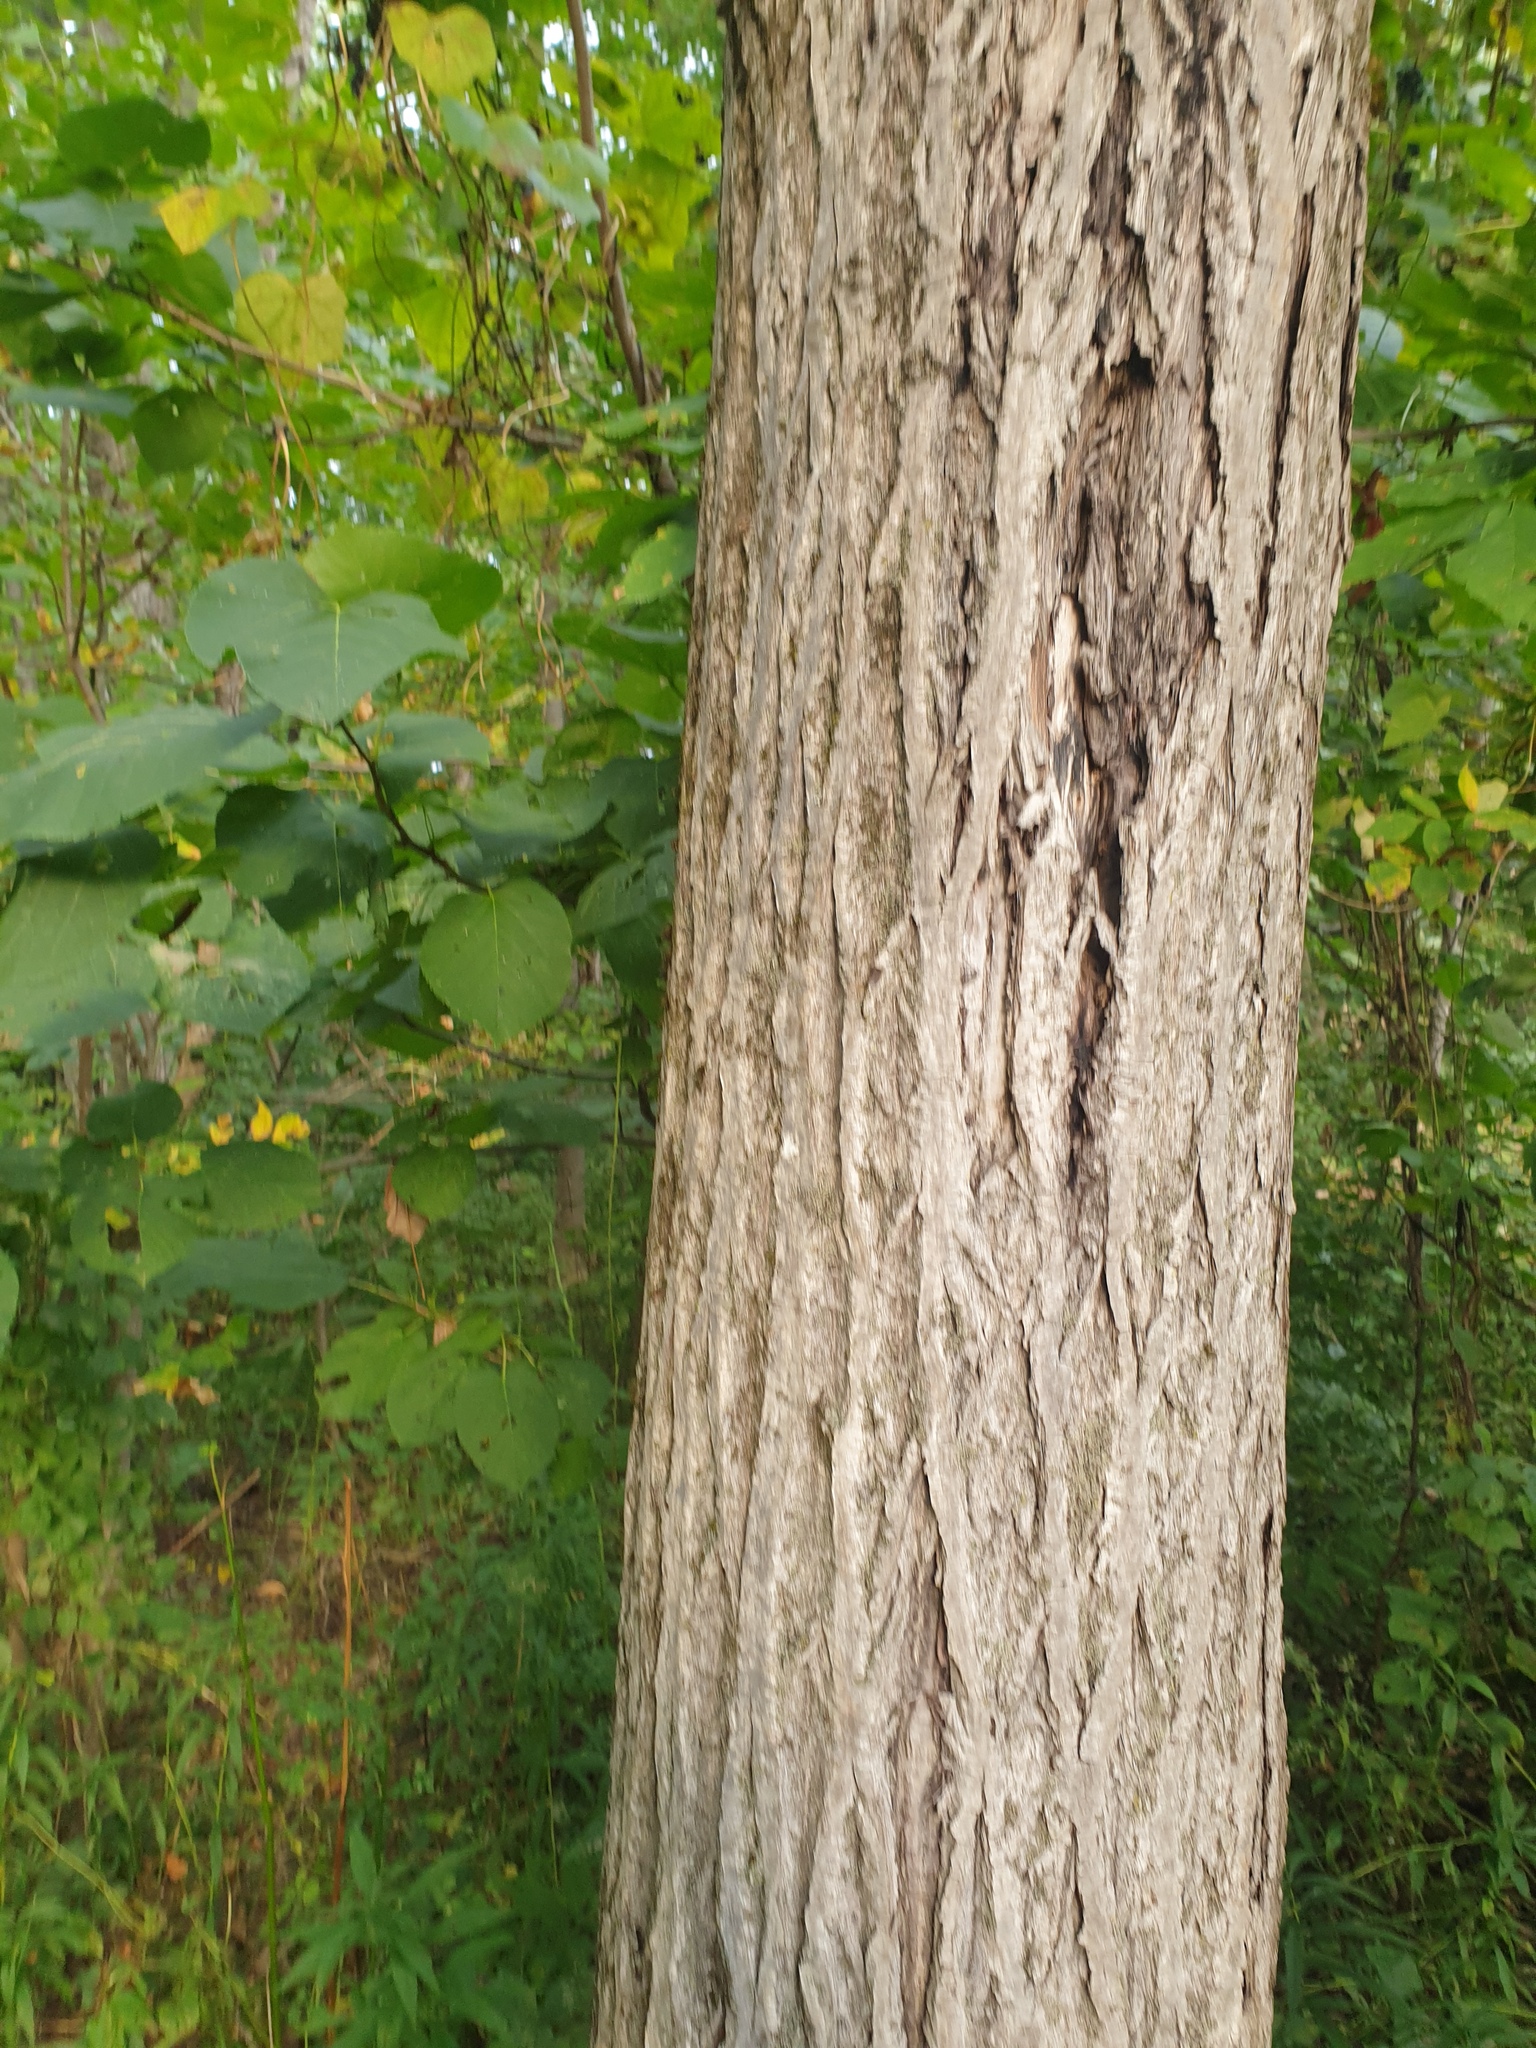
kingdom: Plantae
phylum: Tracheophyta
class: Magnoliopsida
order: Fagales
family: Juglandaceae
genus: Juglans
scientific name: Juglans cinerea
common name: Butternut
